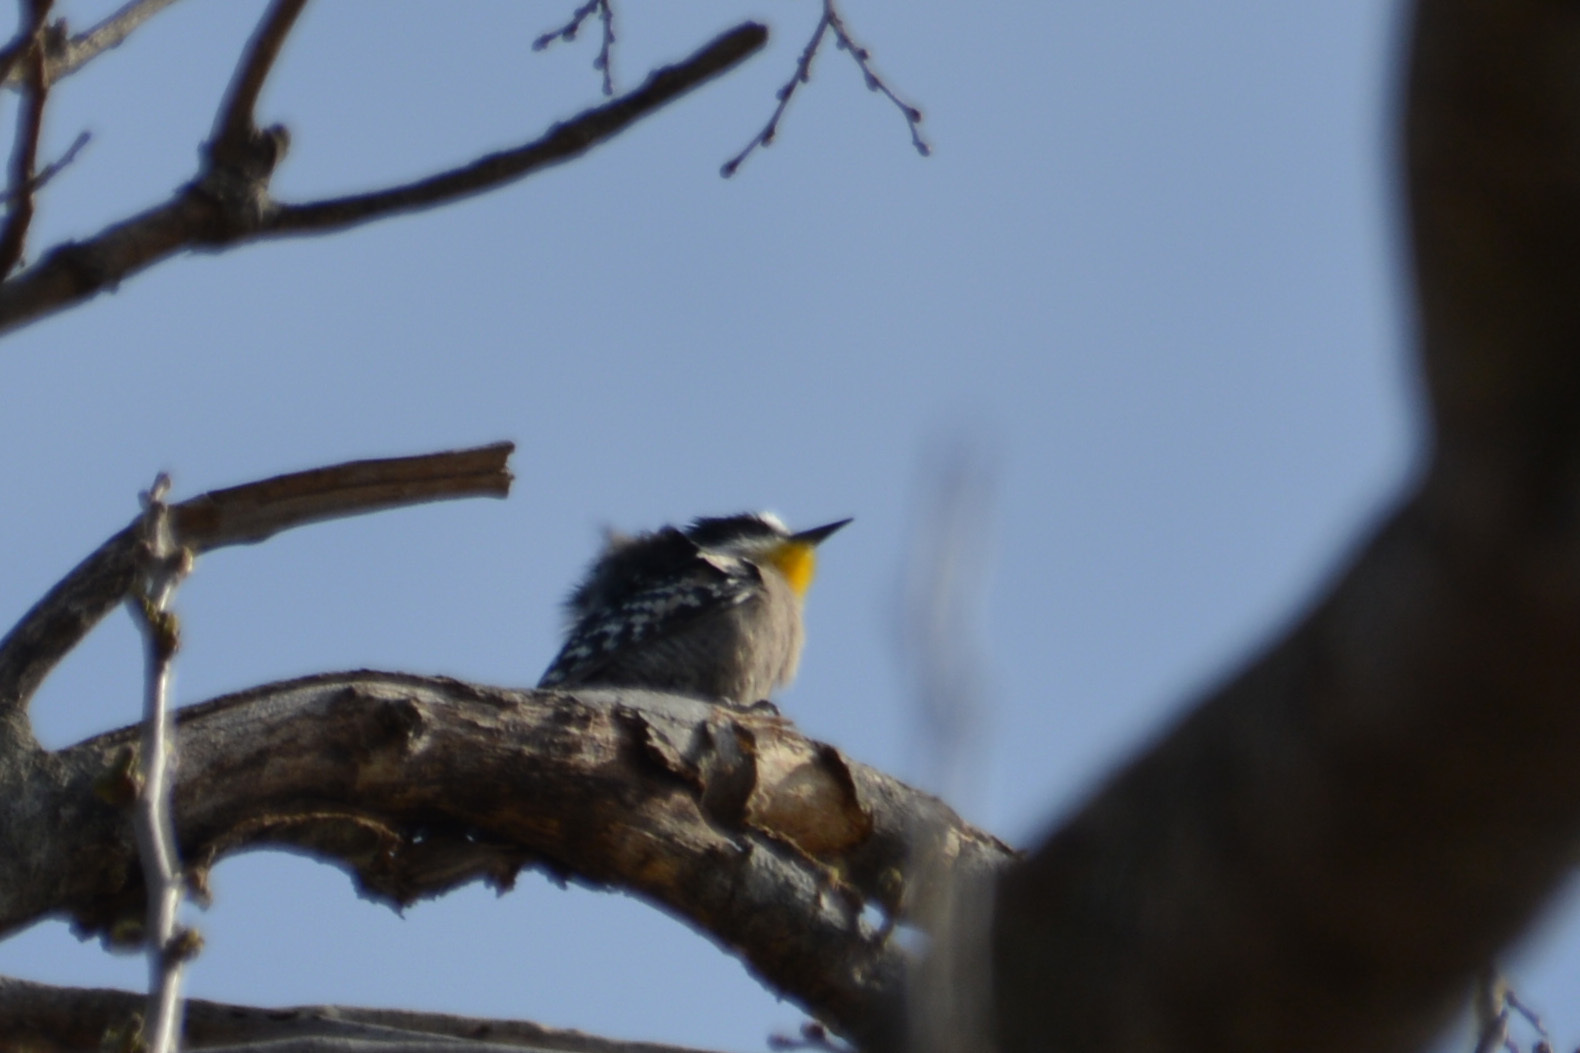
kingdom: Animalia
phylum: Chordata
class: Aves
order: Piciformes
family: Picidae
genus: Melanerpes
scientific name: Melanerpes cactorum
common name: White-fronted woodpecker
